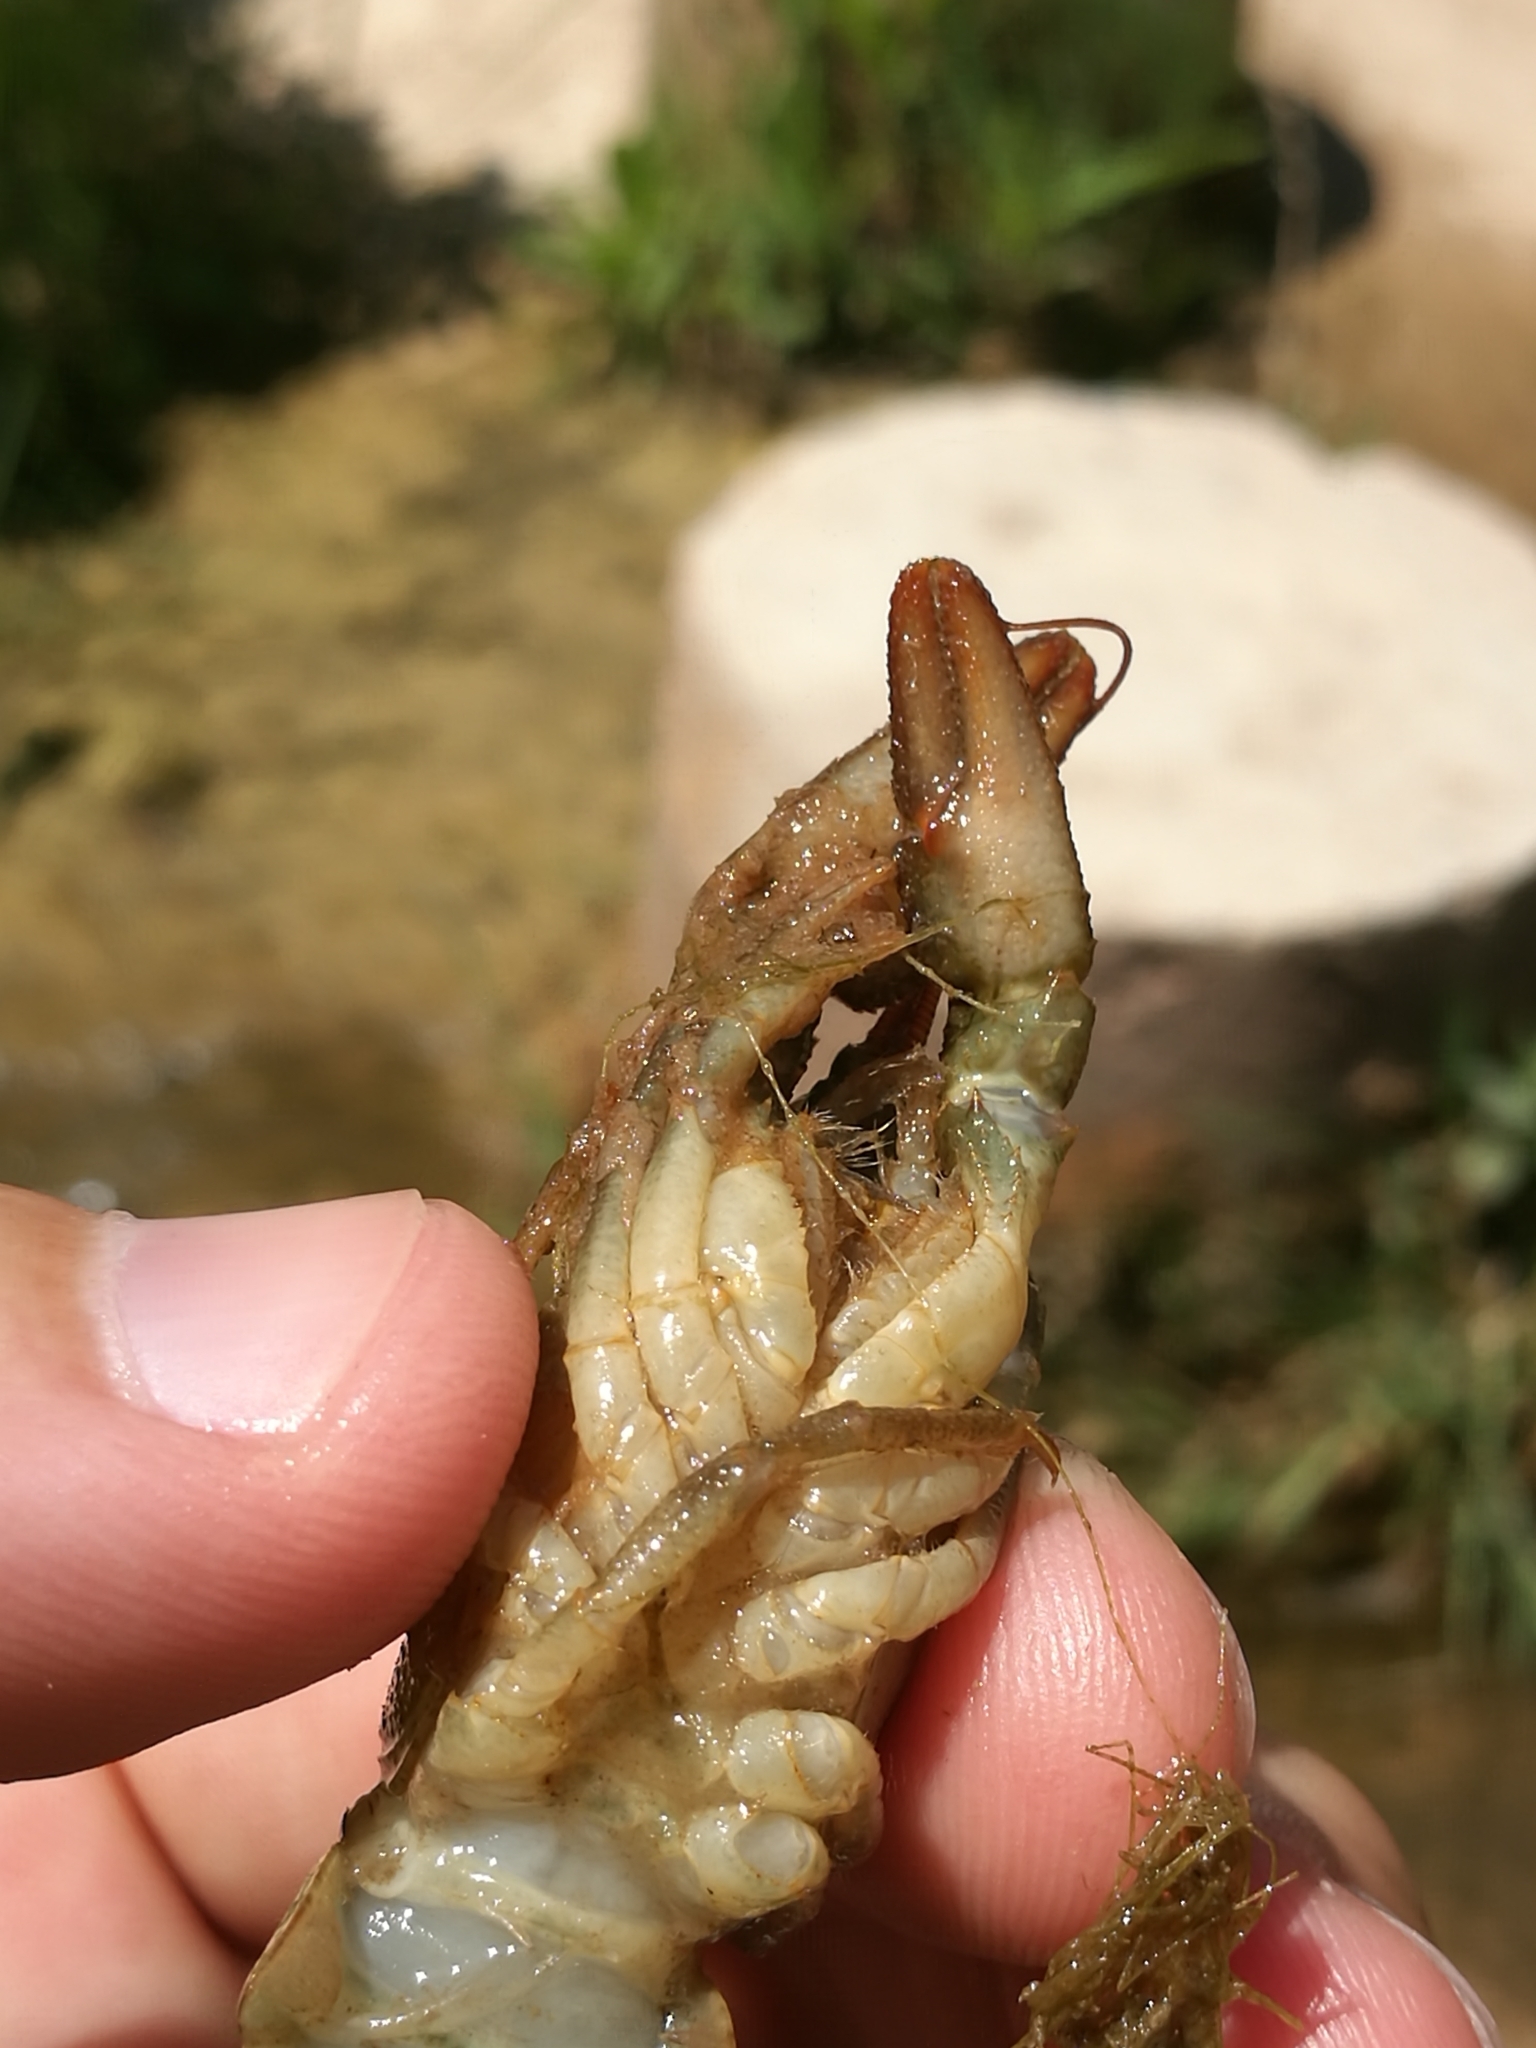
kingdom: Animalia
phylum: Arthropoda
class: Malacostraca
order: Decapoda
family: Astacidae
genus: Austropotamobius
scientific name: Austropotamobius pallipes
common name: White-clawed crayfish
